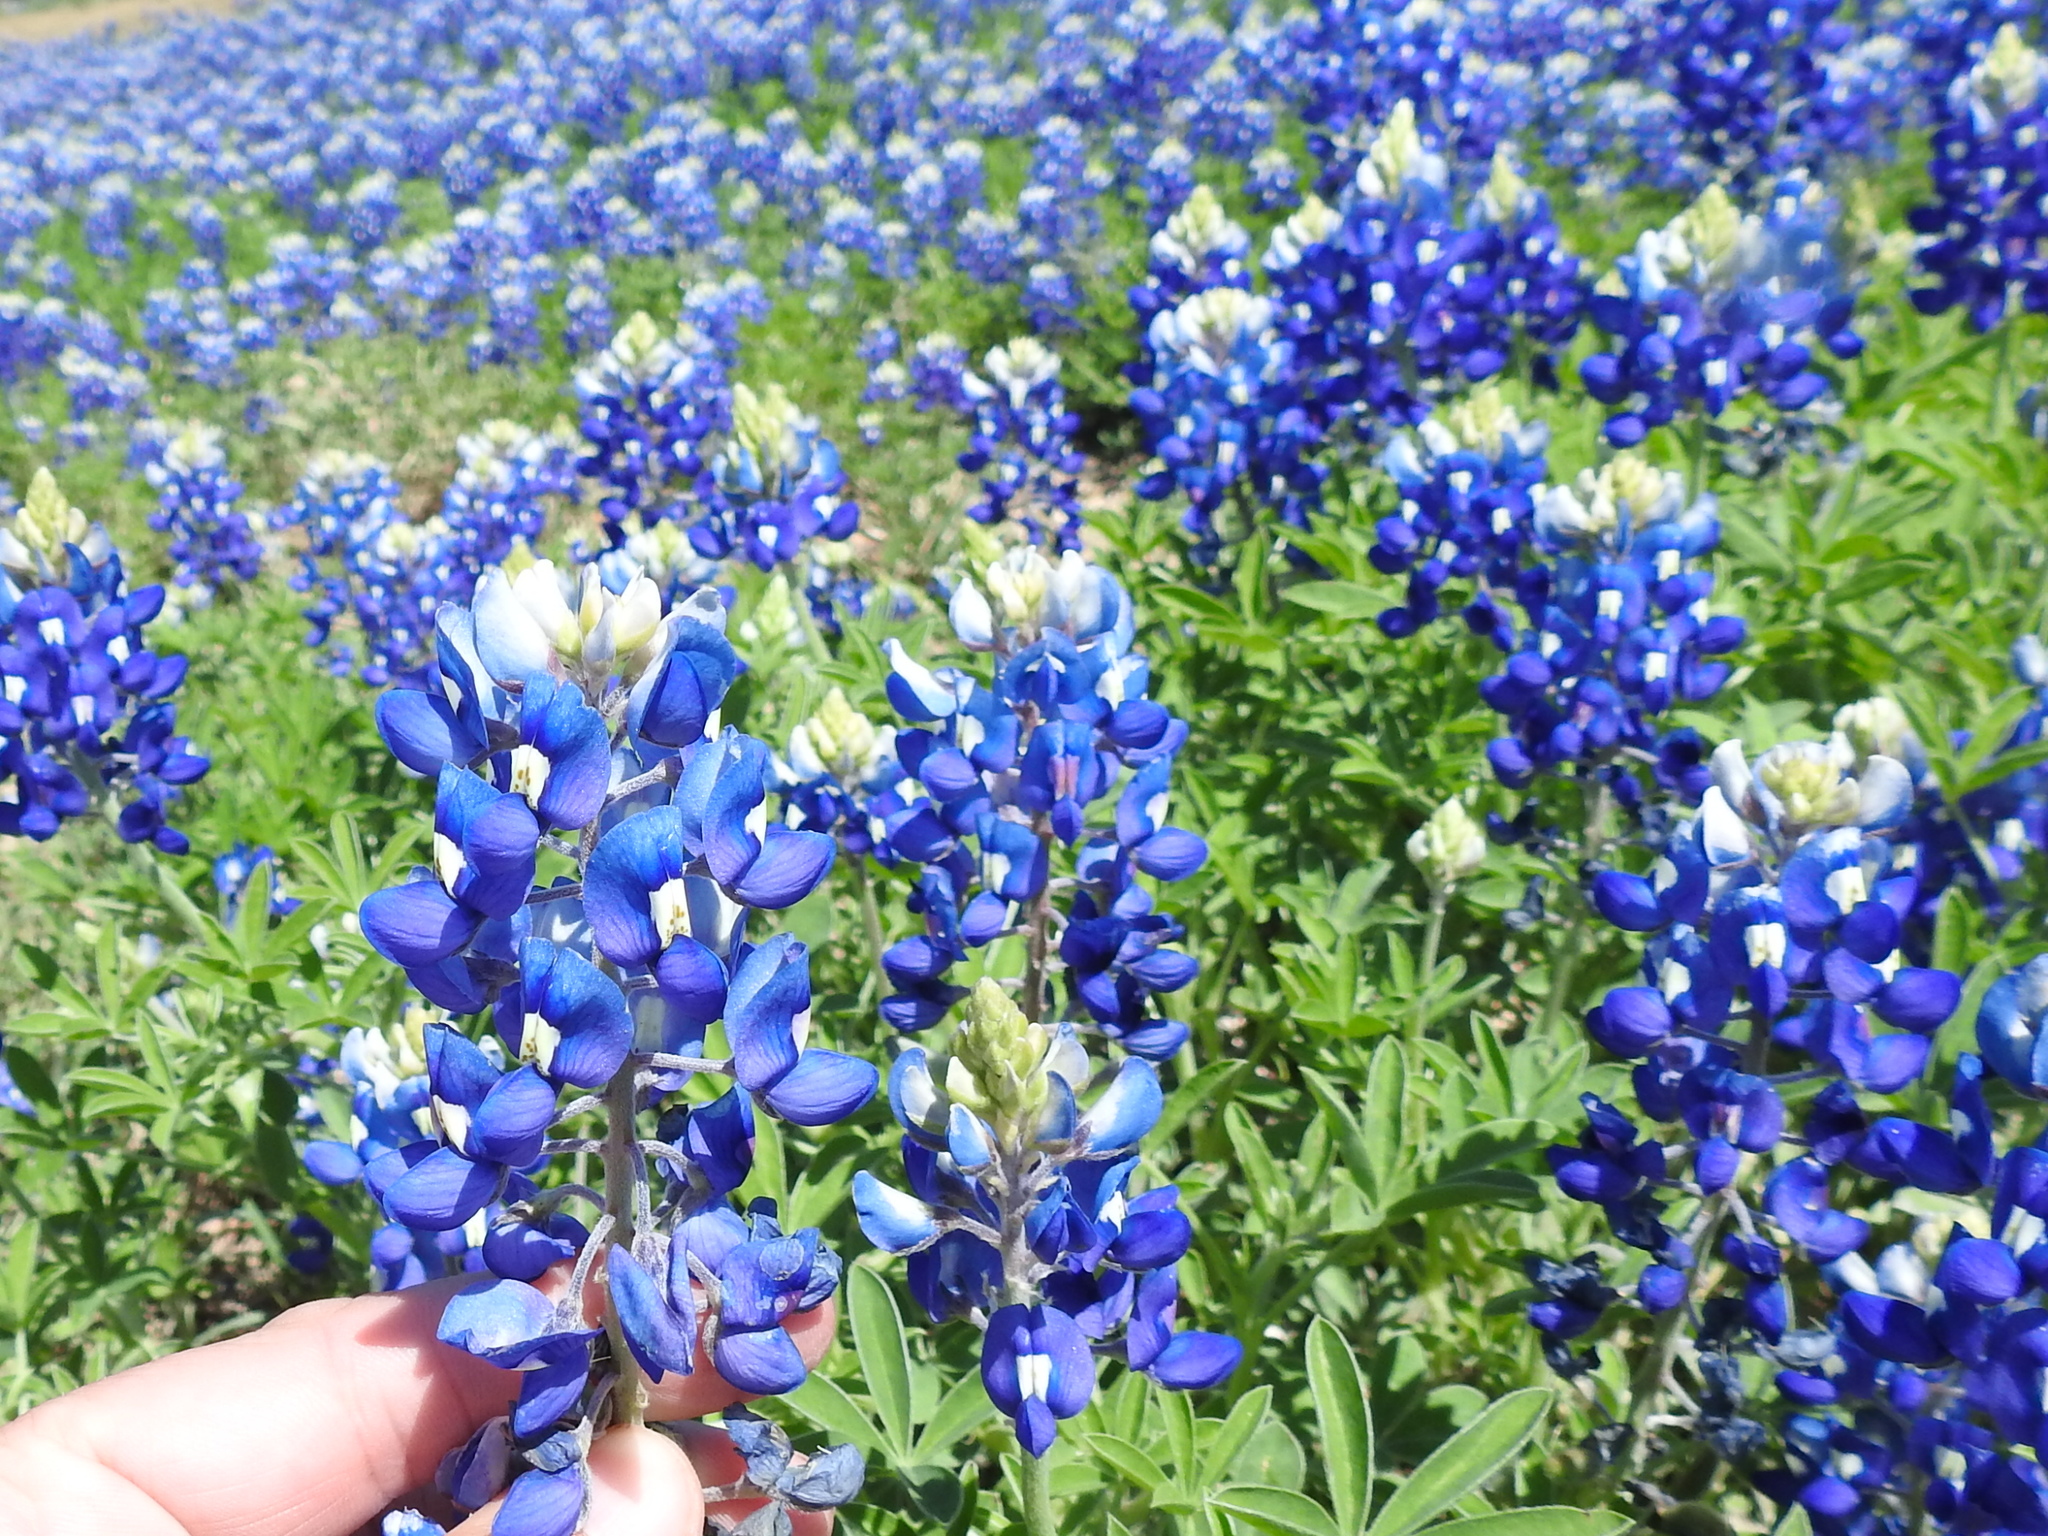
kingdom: Plantae
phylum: Tracheophyta
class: Magnoliopsida
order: Fabales
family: Fabaceae
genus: Lupinus
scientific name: Lupinus texensis
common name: Texas bluebonnet
